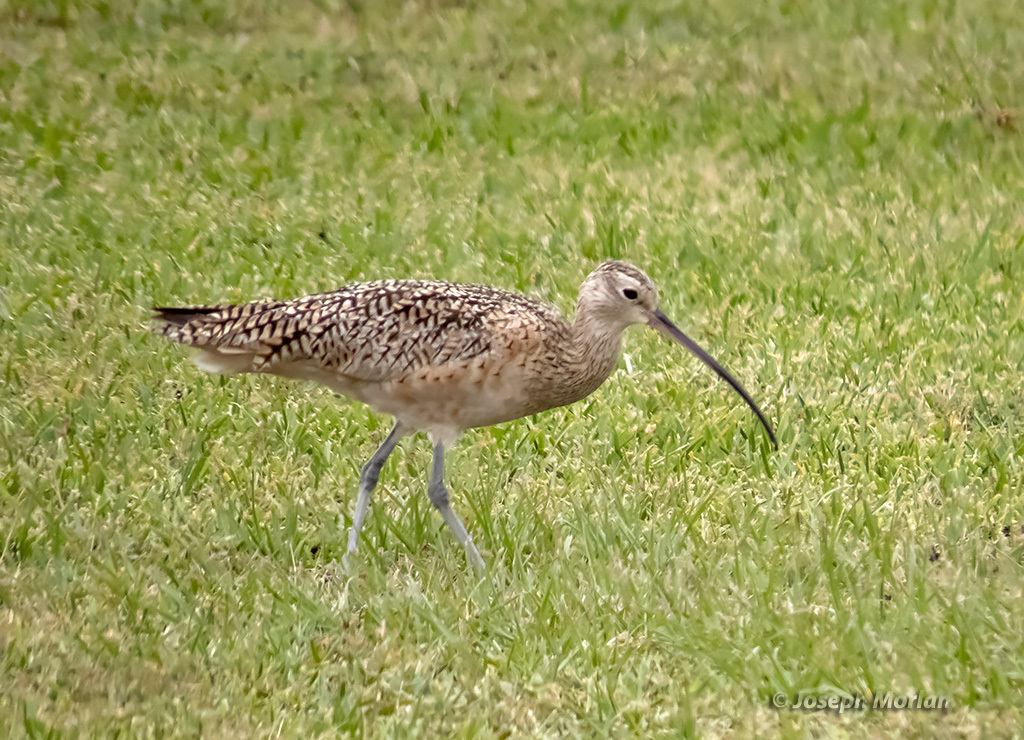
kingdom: Animalia
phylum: Chordata
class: Aves
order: Charadriiformes
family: Scolopacidae
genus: Numenius
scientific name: Numenius americanus
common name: Long-billed curlew
